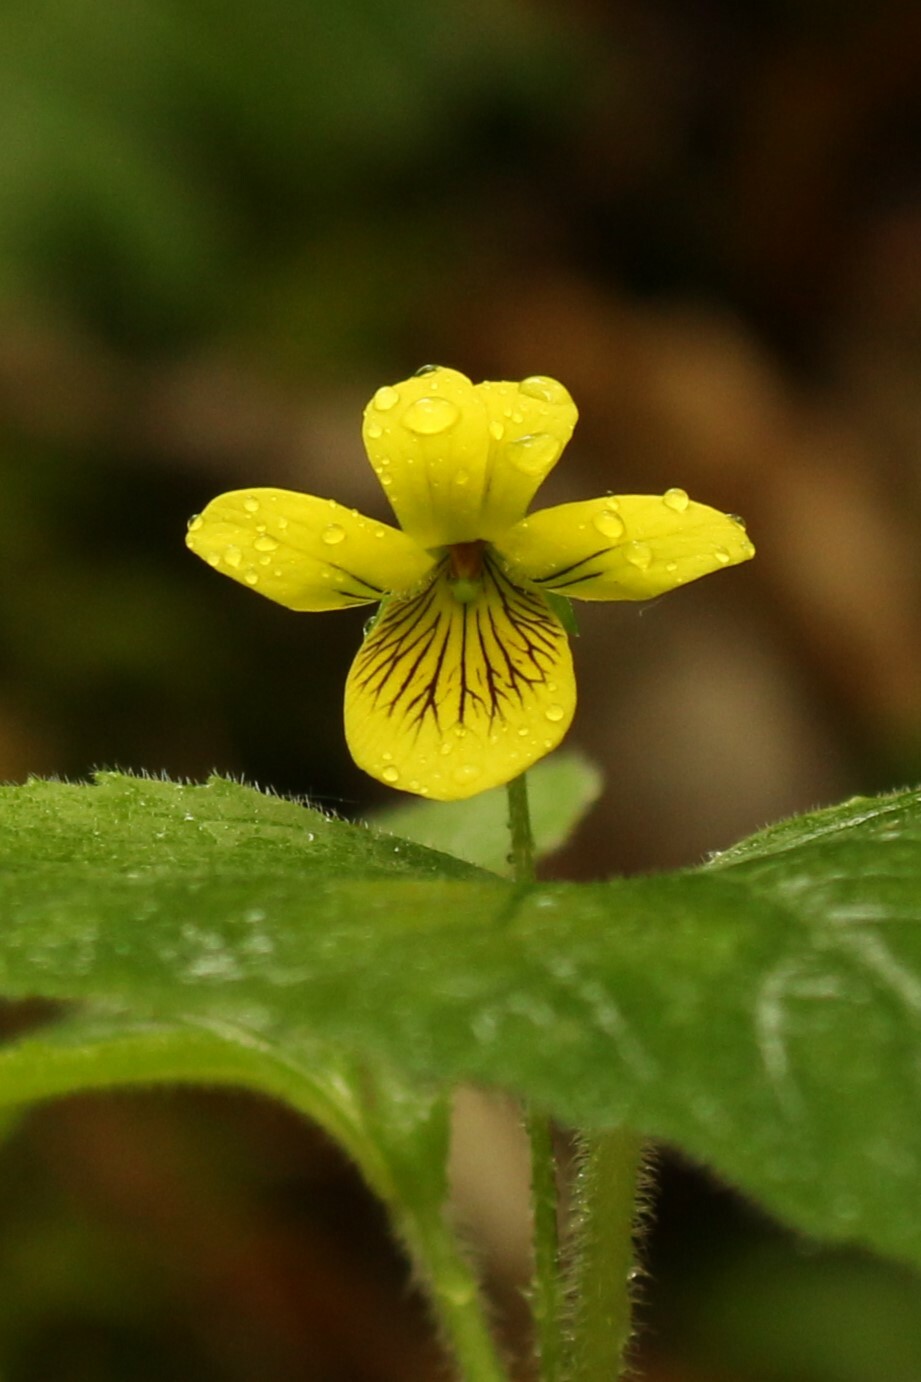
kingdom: Plantae
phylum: Tracheophyta
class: Magnoliopsida
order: Malpighiales
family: Violaceae
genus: Viola
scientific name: Viola pubescens
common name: Yellow forest violet
